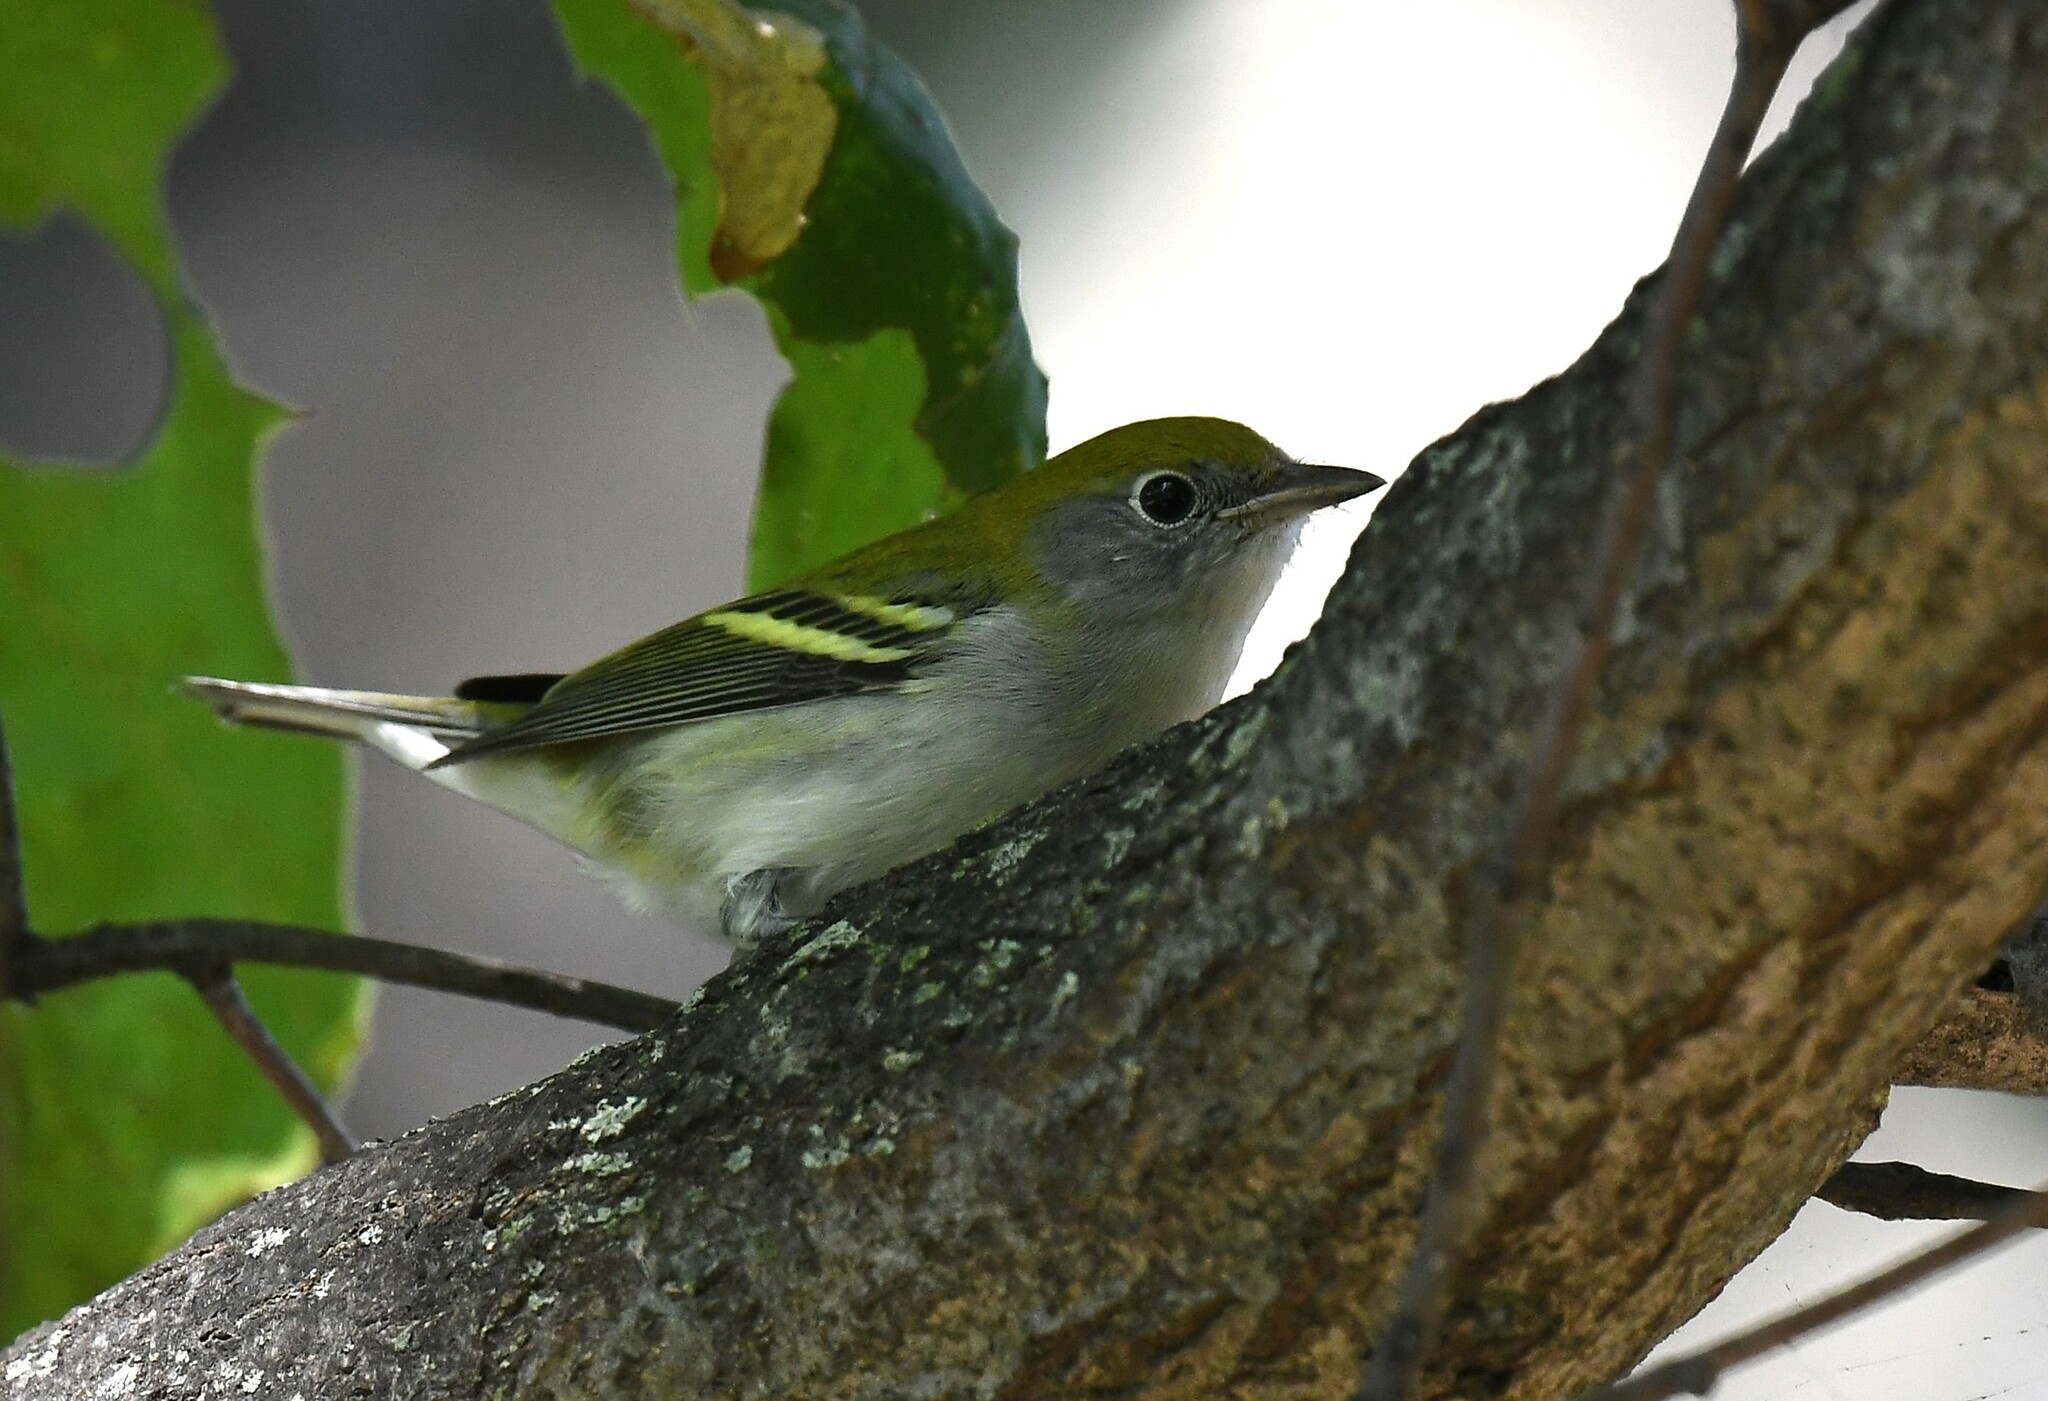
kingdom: Animalia
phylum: Chordata
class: Aves
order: Passeriformes
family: Parulidae
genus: Setophaga
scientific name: Setophaga pensylvanica
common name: Chestnut-sided warbler
